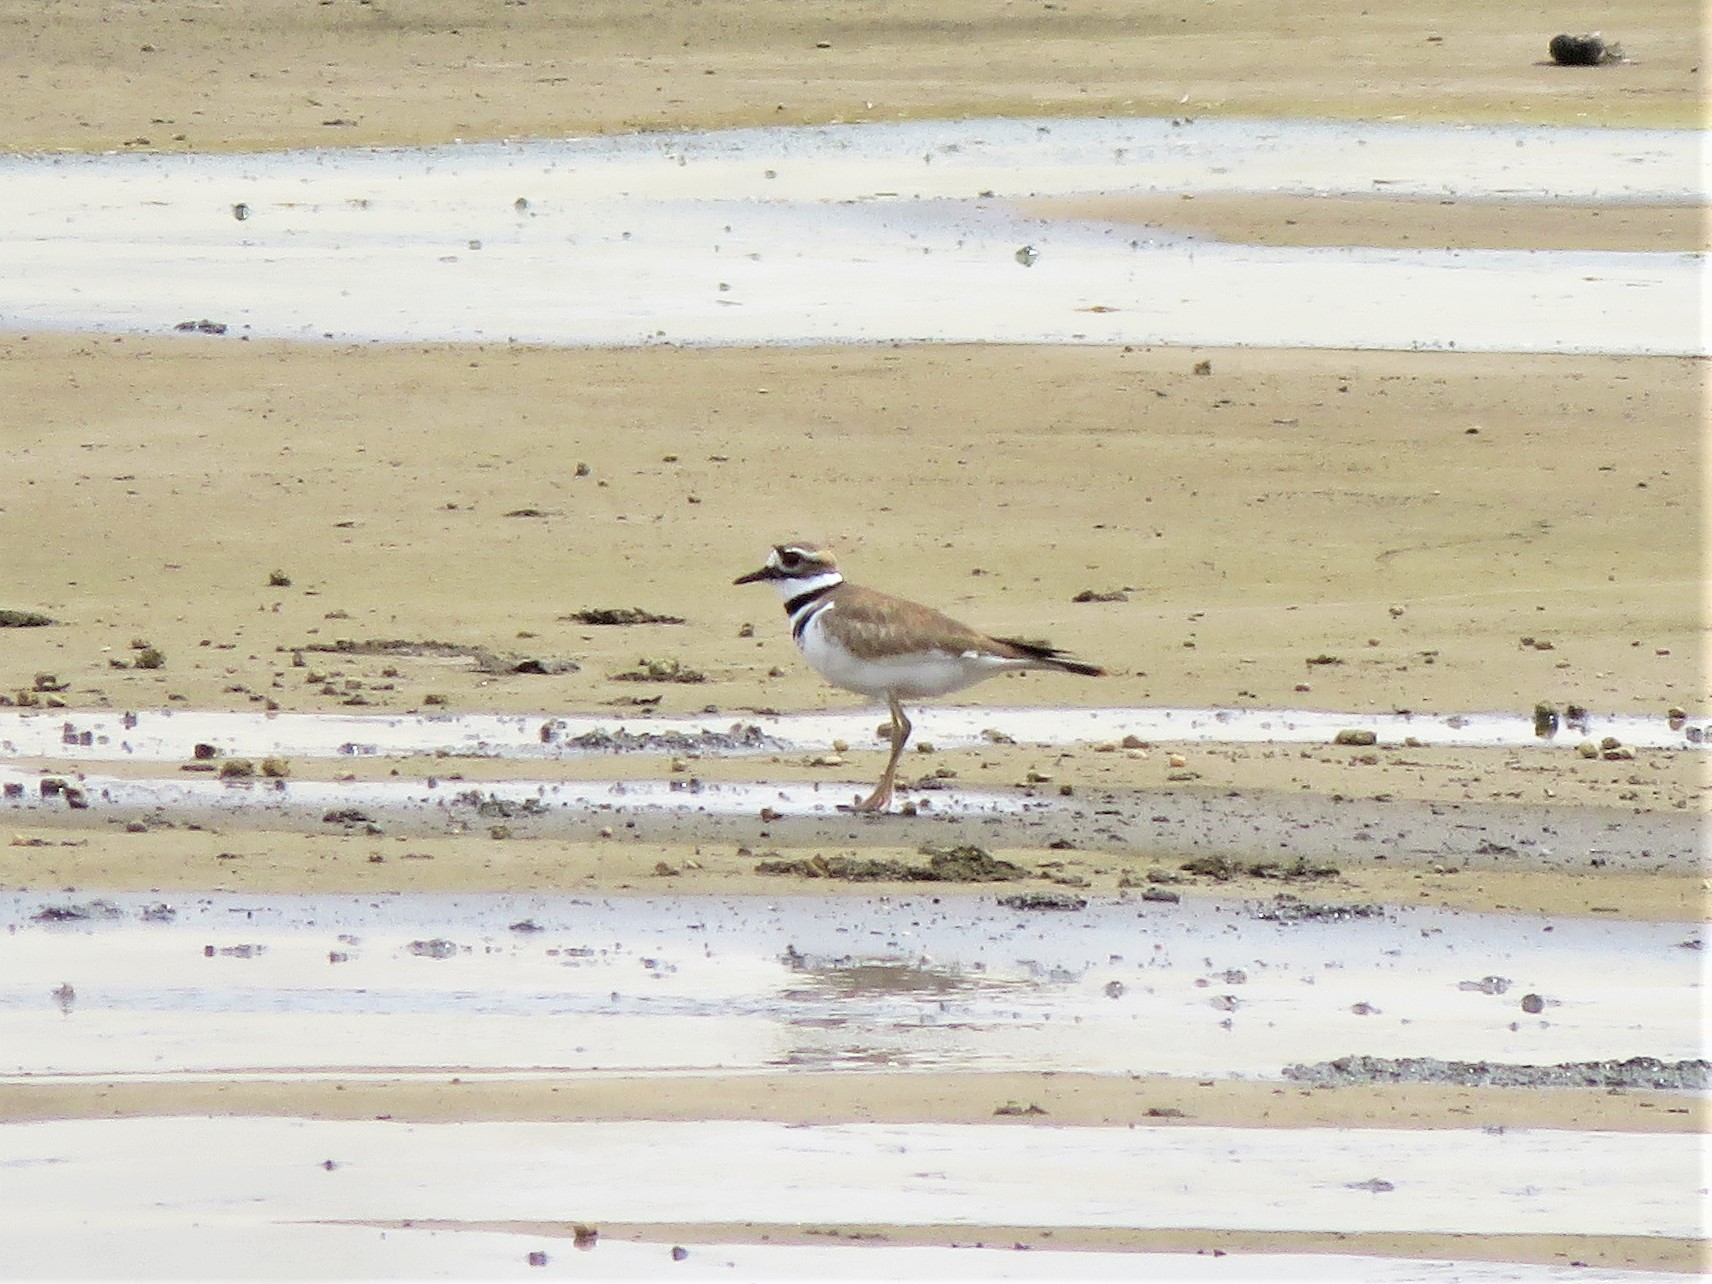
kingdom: Animalia
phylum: Chordata
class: Aves
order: Charadriiformes
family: Charadriidae
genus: Charadrius
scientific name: Charadrius vociferus
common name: Killdeer
